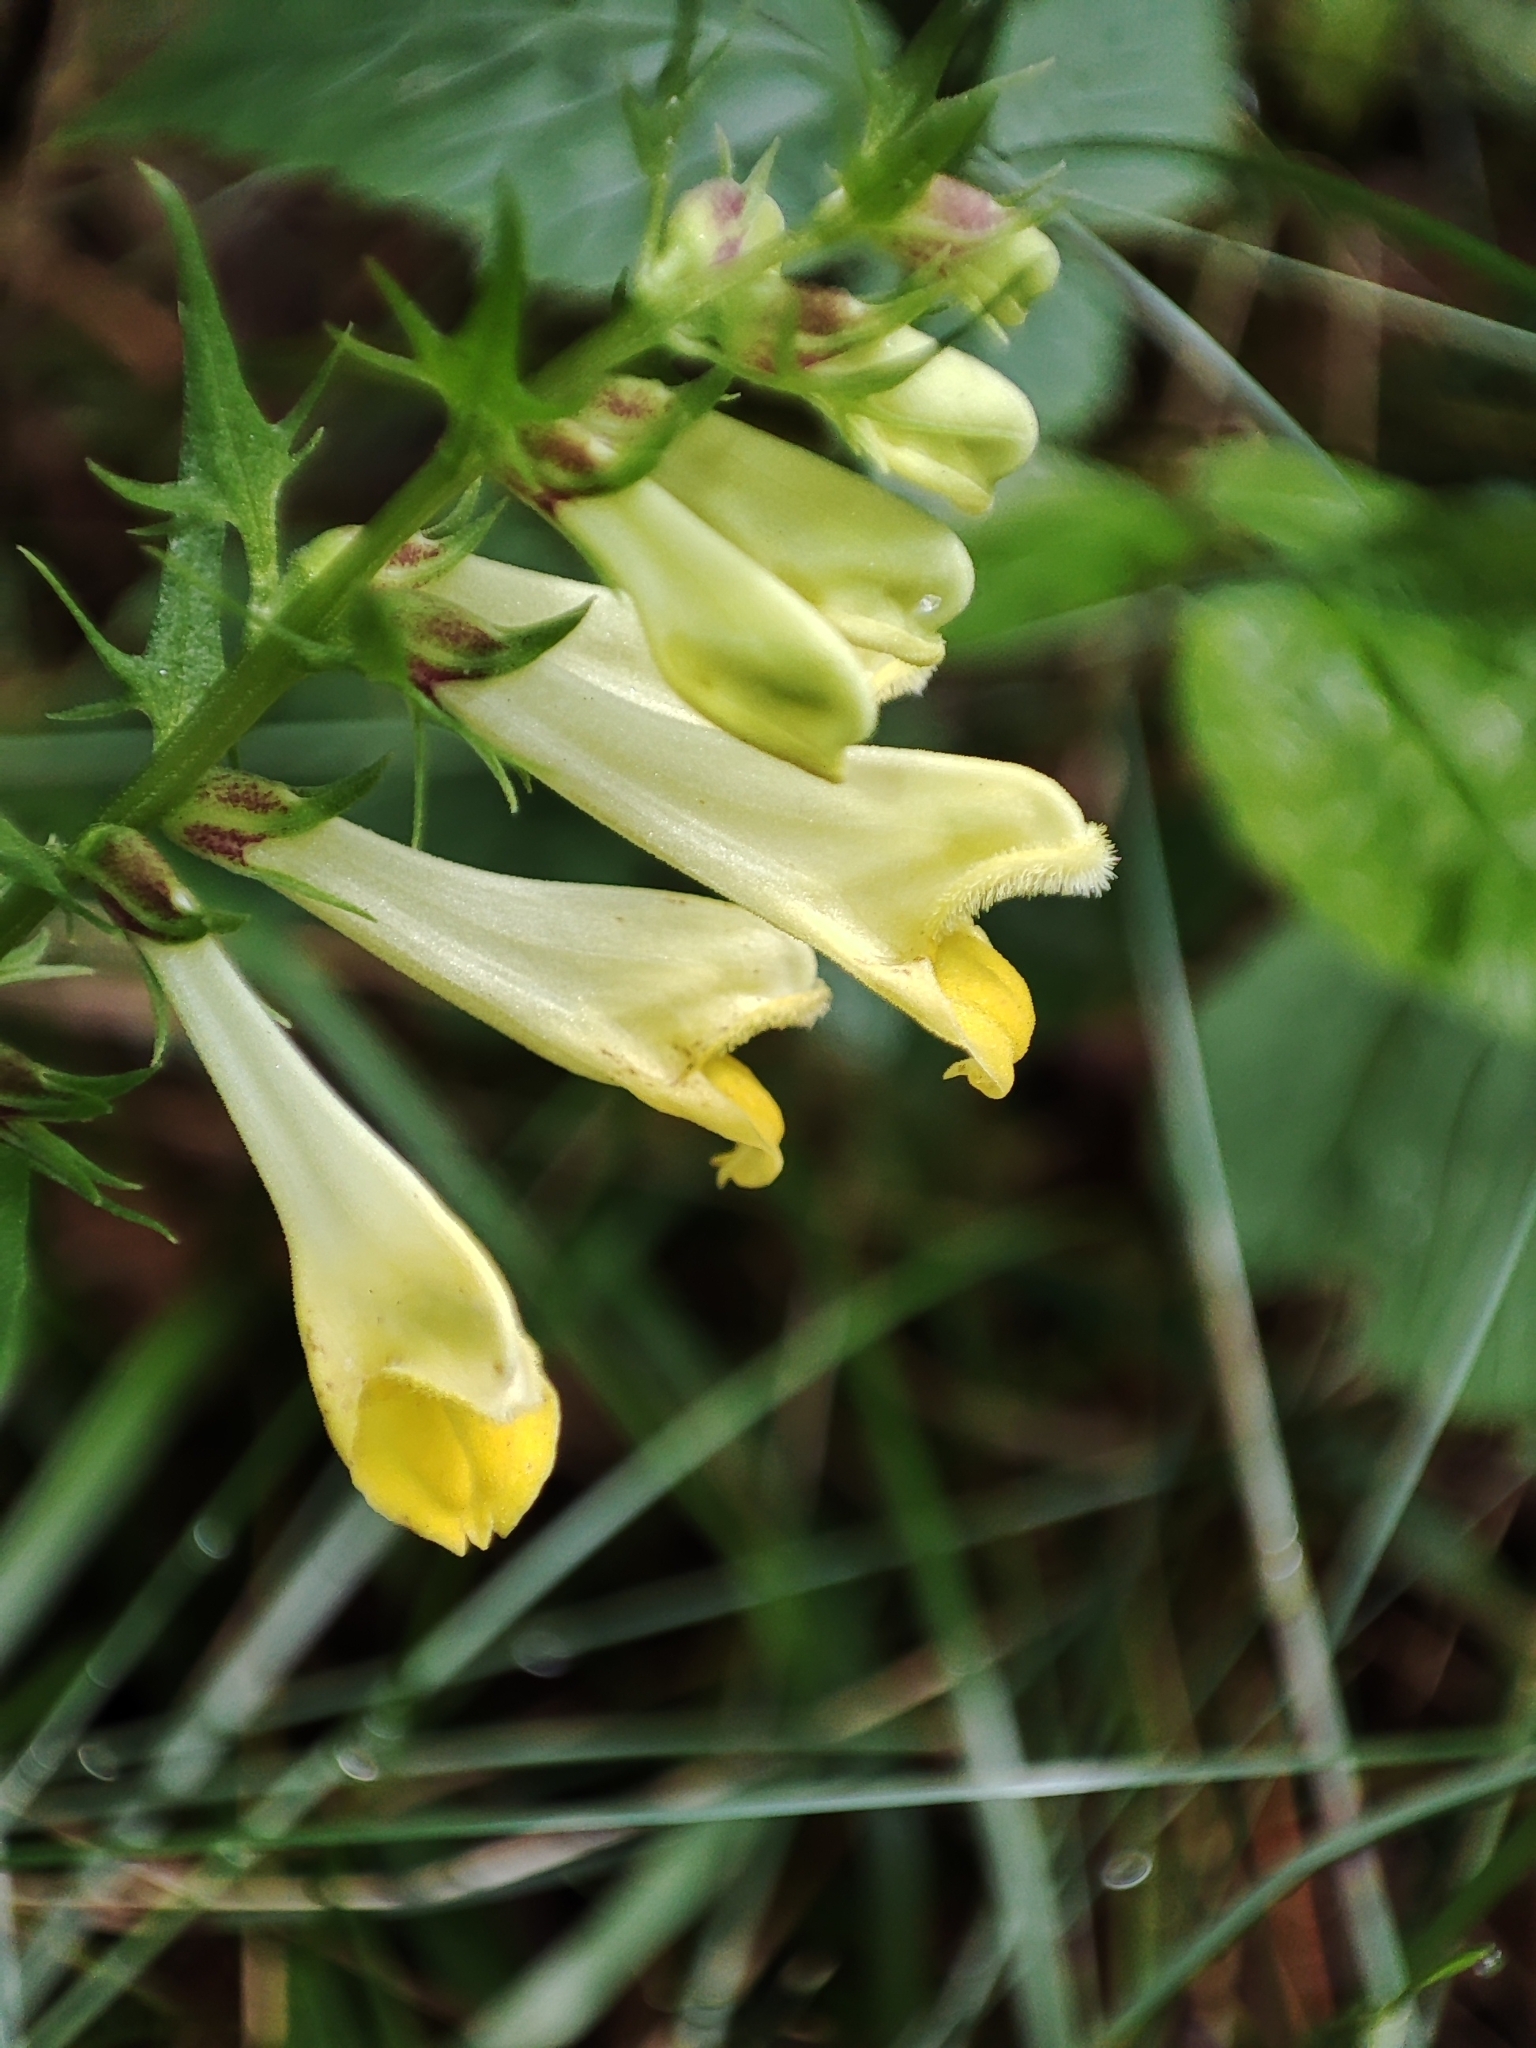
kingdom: Plantae
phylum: Tracheophyta
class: Magnoliopsida
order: Lamiales
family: Orobanchaceae
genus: Melampyrum
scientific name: Melampyrum pratense
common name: Common cow-wheat
